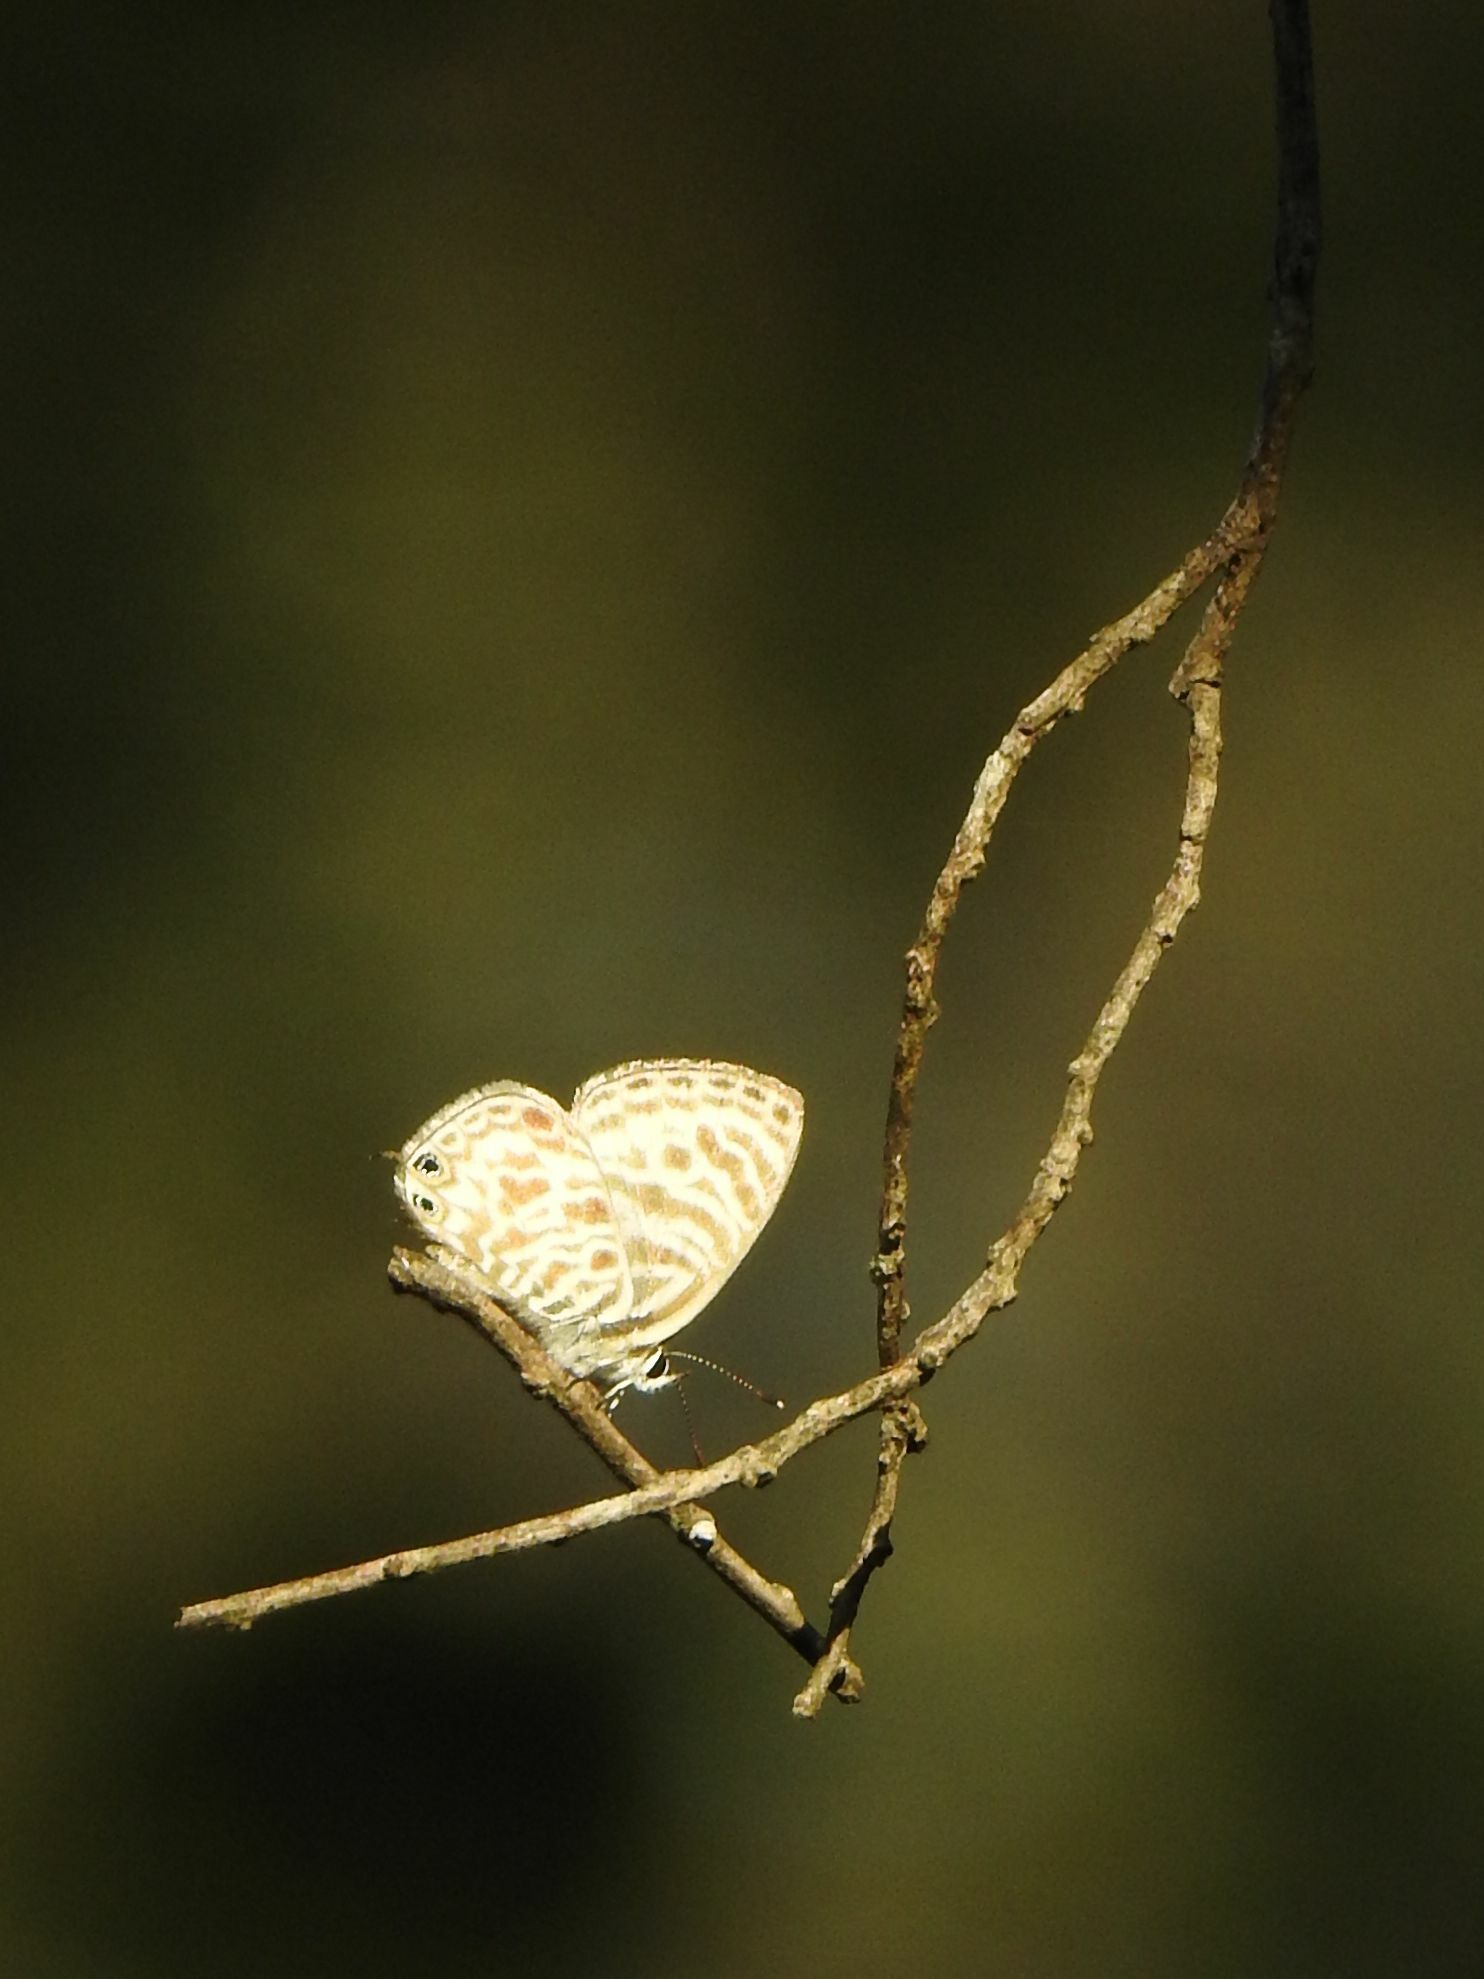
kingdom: Animalia
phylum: Arthropoda
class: Insecta
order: Lepidoptera
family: Lycaenidae
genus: Leptotes
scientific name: Leptotes
